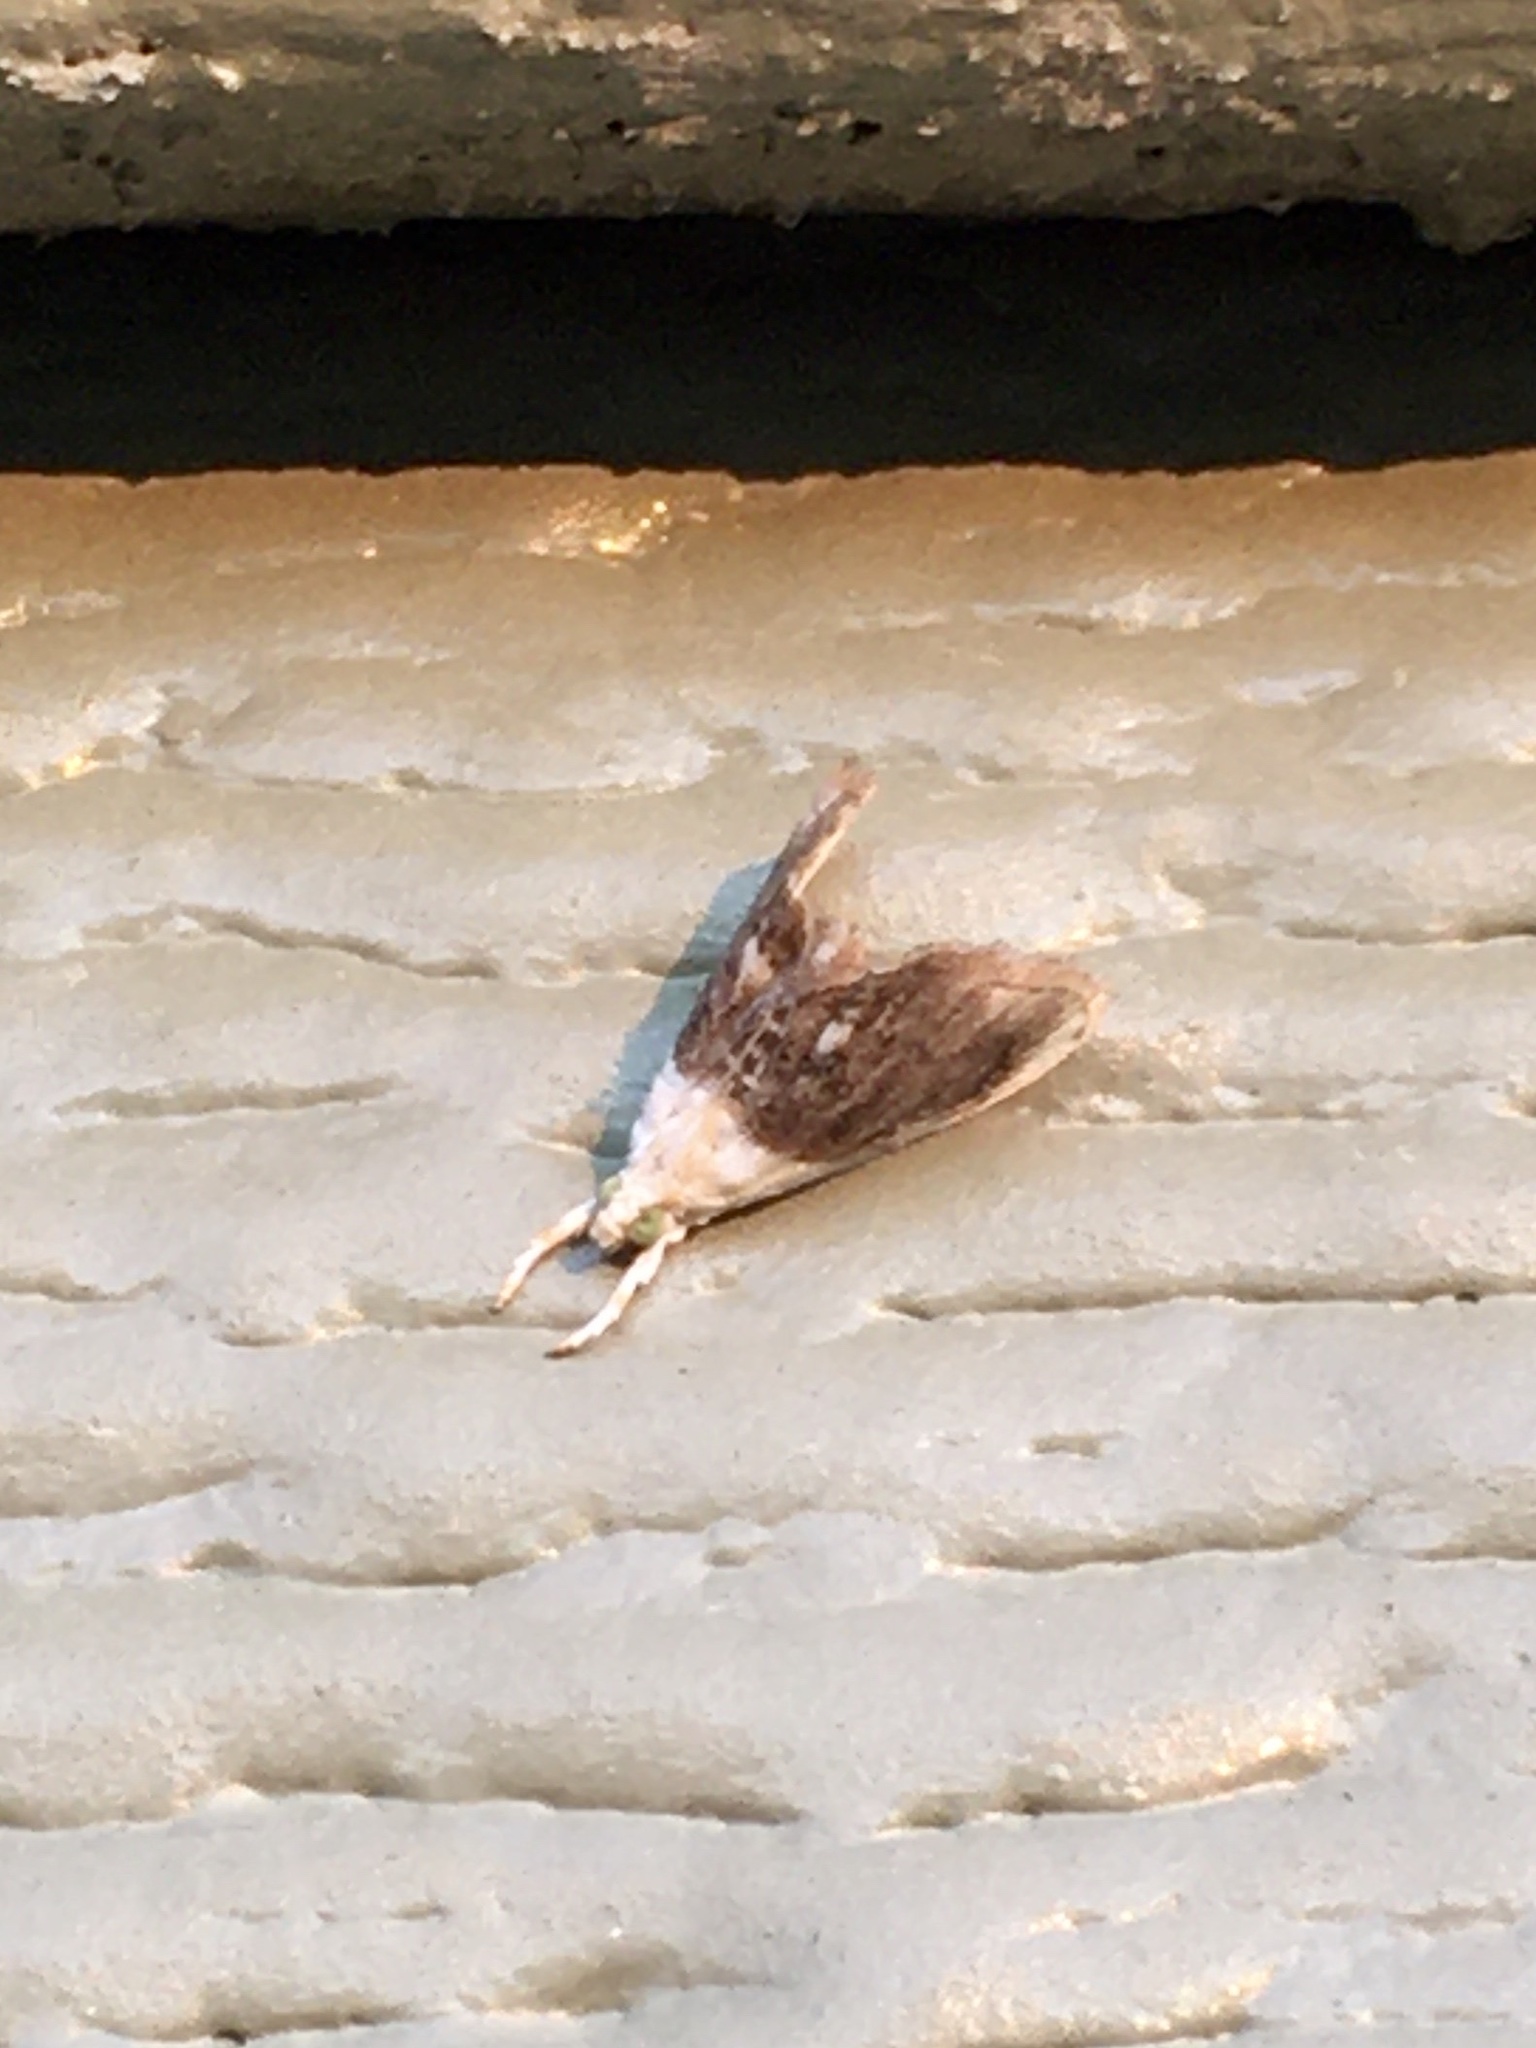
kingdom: Animalia
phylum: Arthropoda
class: Insecta
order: Lepidoptera
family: Crambidae
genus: Lipocosmodes
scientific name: Lipocosmodes fuliginosalis
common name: Sooty lipocosmodes moth
